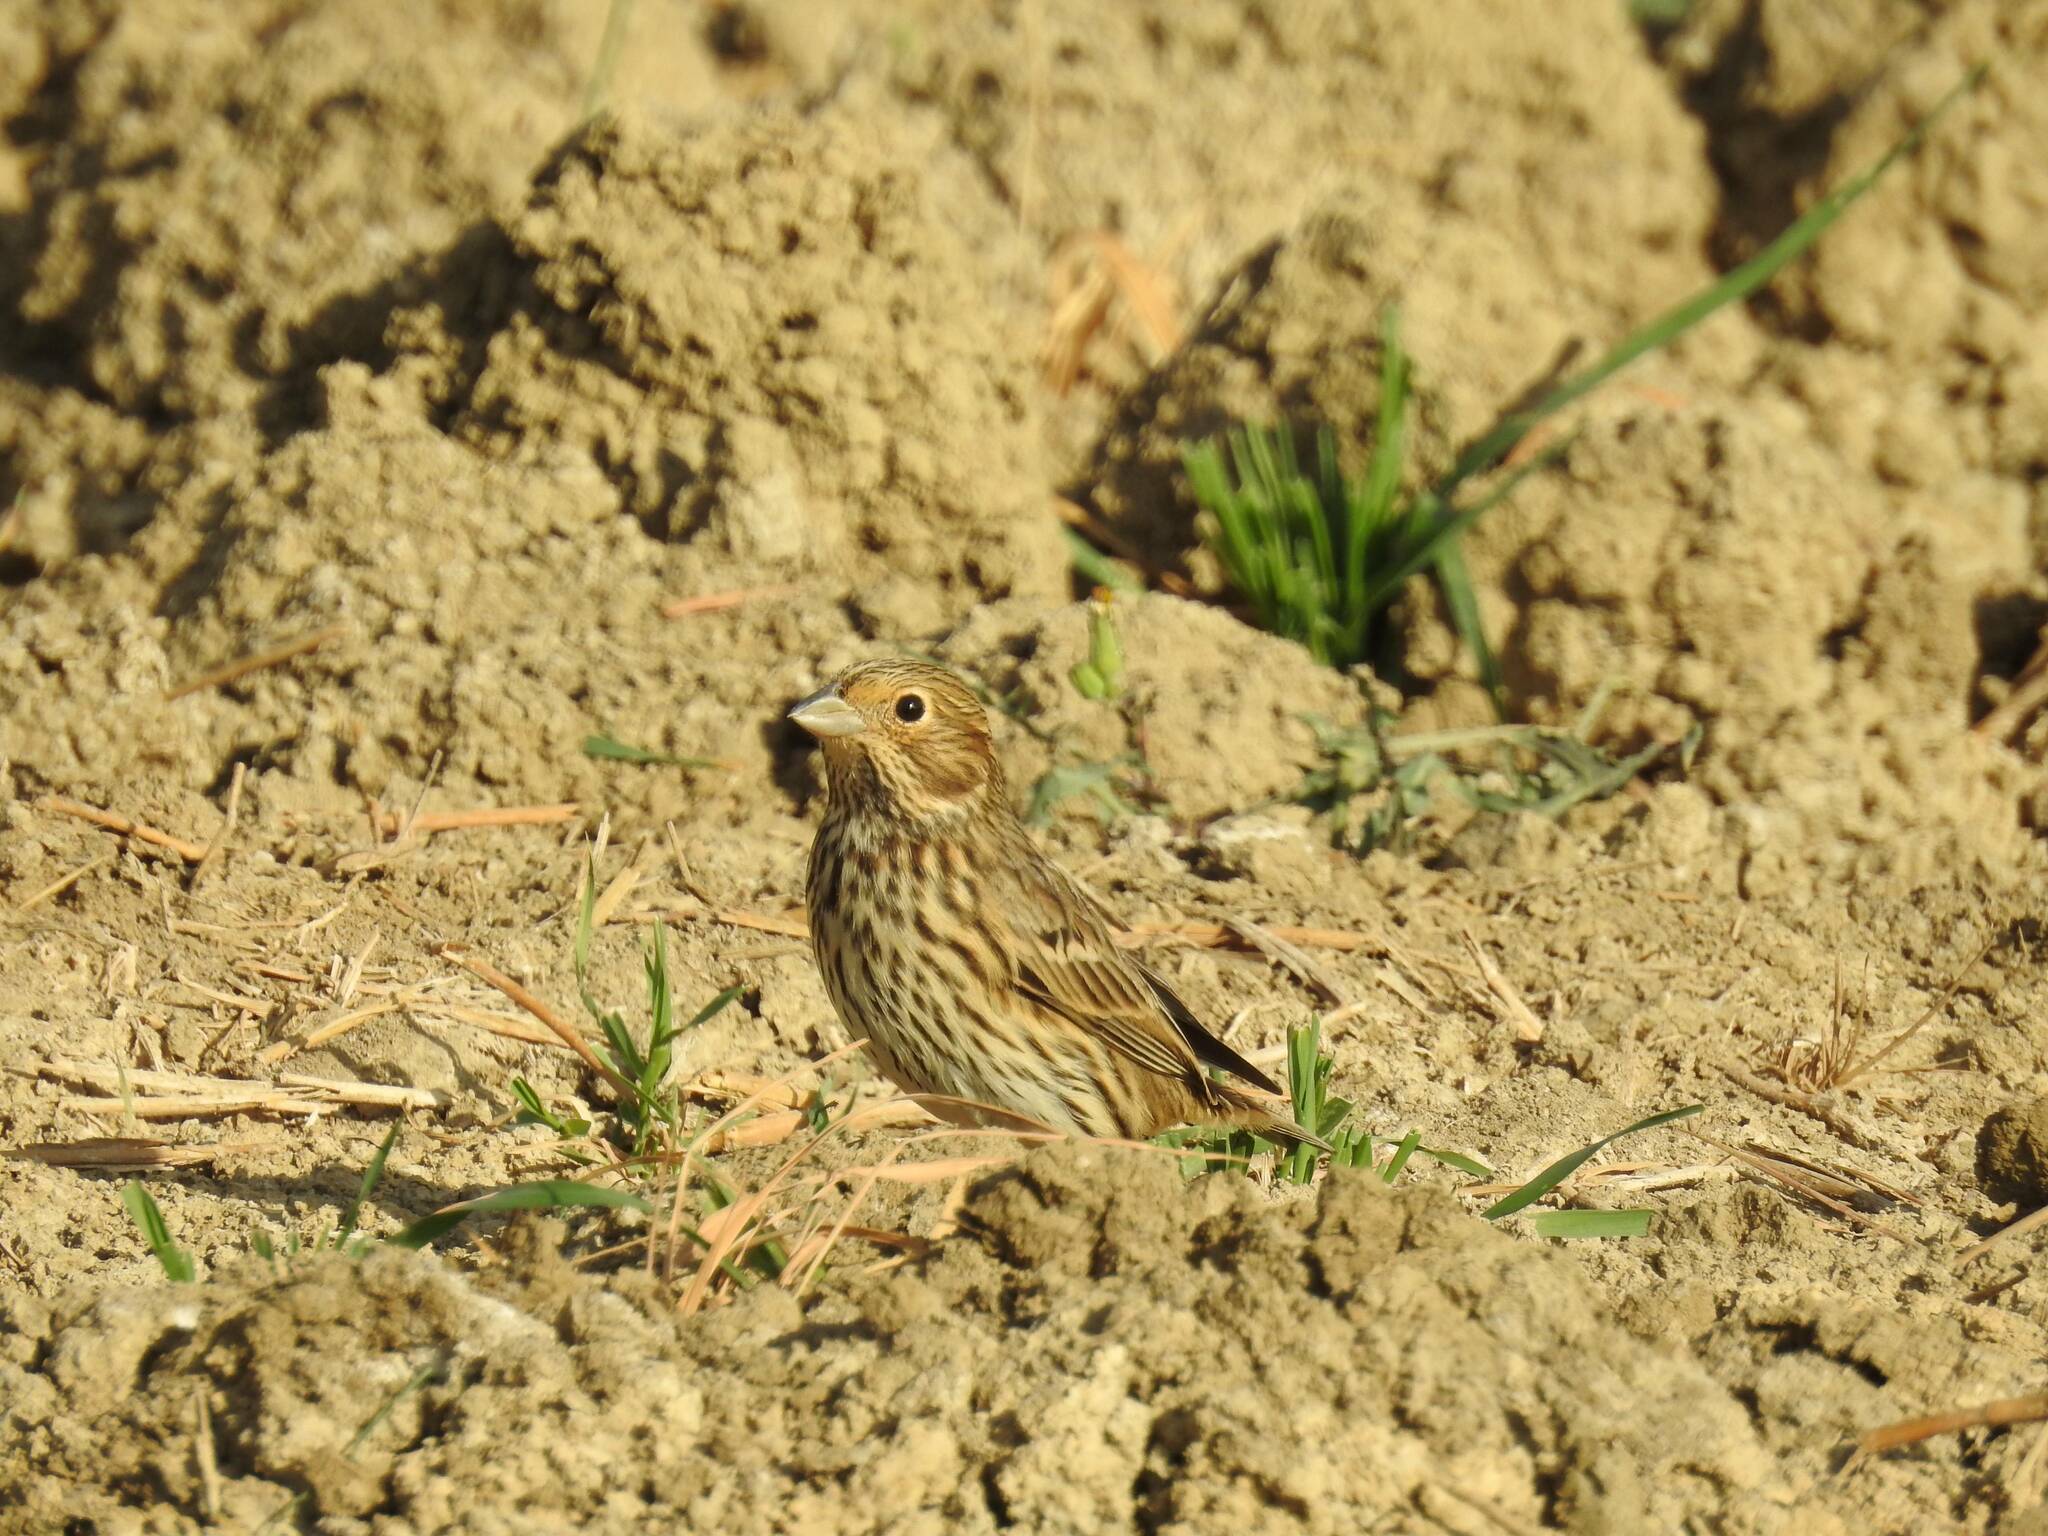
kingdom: Animalia
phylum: Chordata
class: Aves
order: Passeriformes
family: Emberizidae
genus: Emberiza
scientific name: Emberiza calandra
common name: Corn bunting
